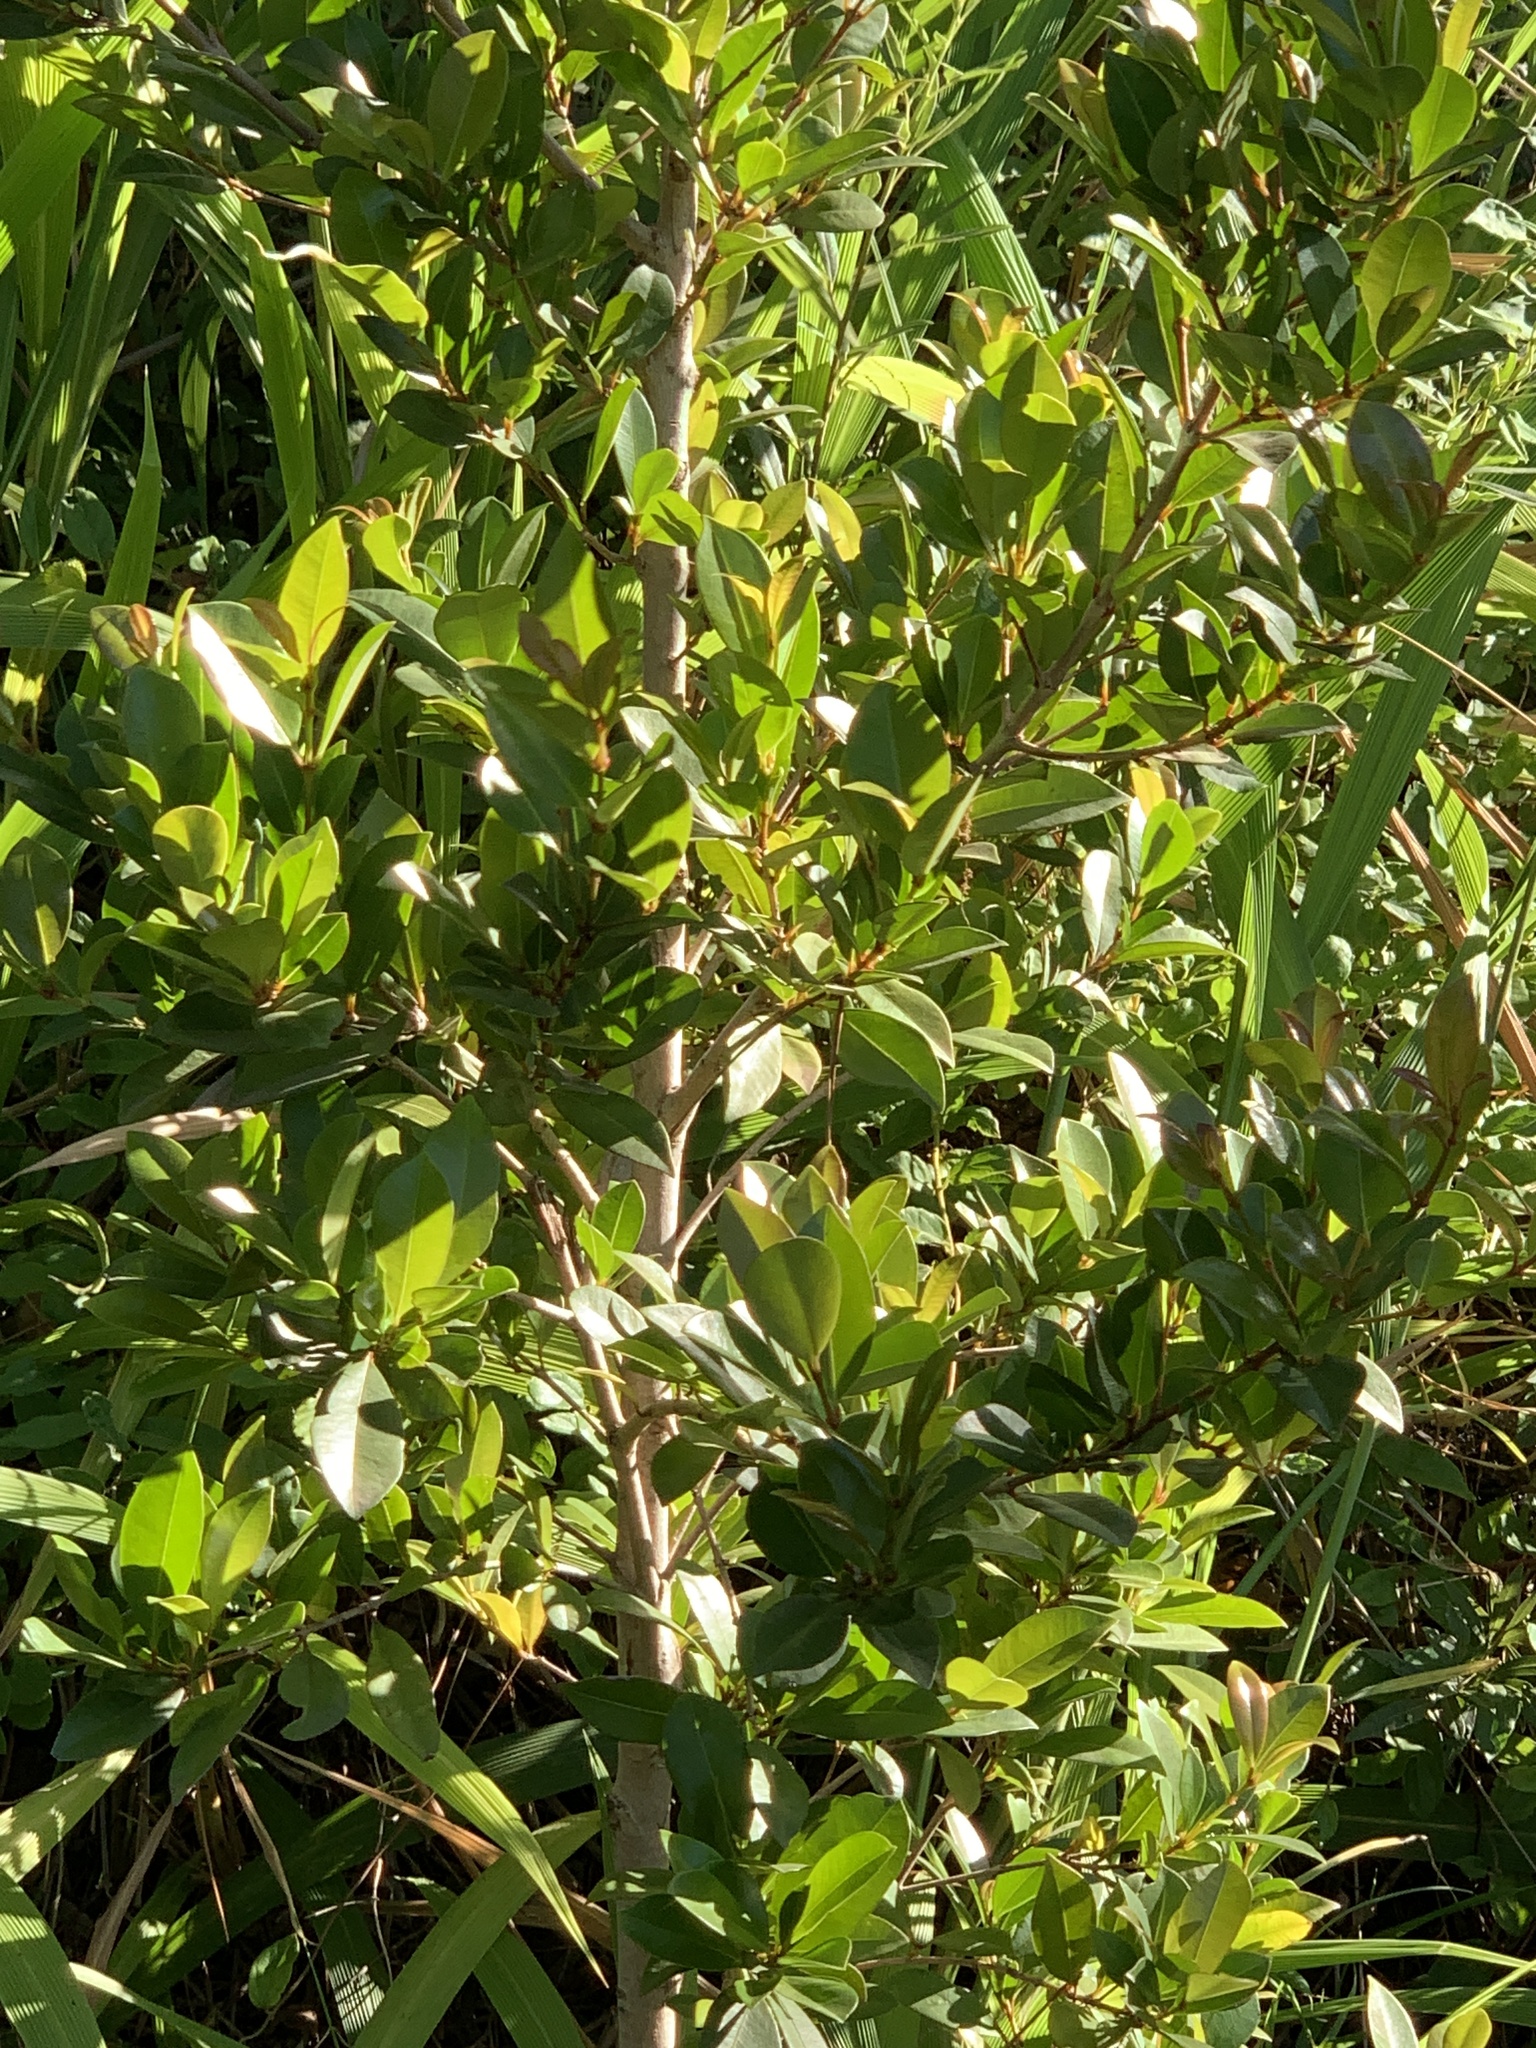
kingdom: Plantae
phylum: Tracheophyta
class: Magnoliopsida
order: Myrtales
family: Myrtaceae
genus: Syzygium
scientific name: Syzygium australe
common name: Australian brush-cherry
